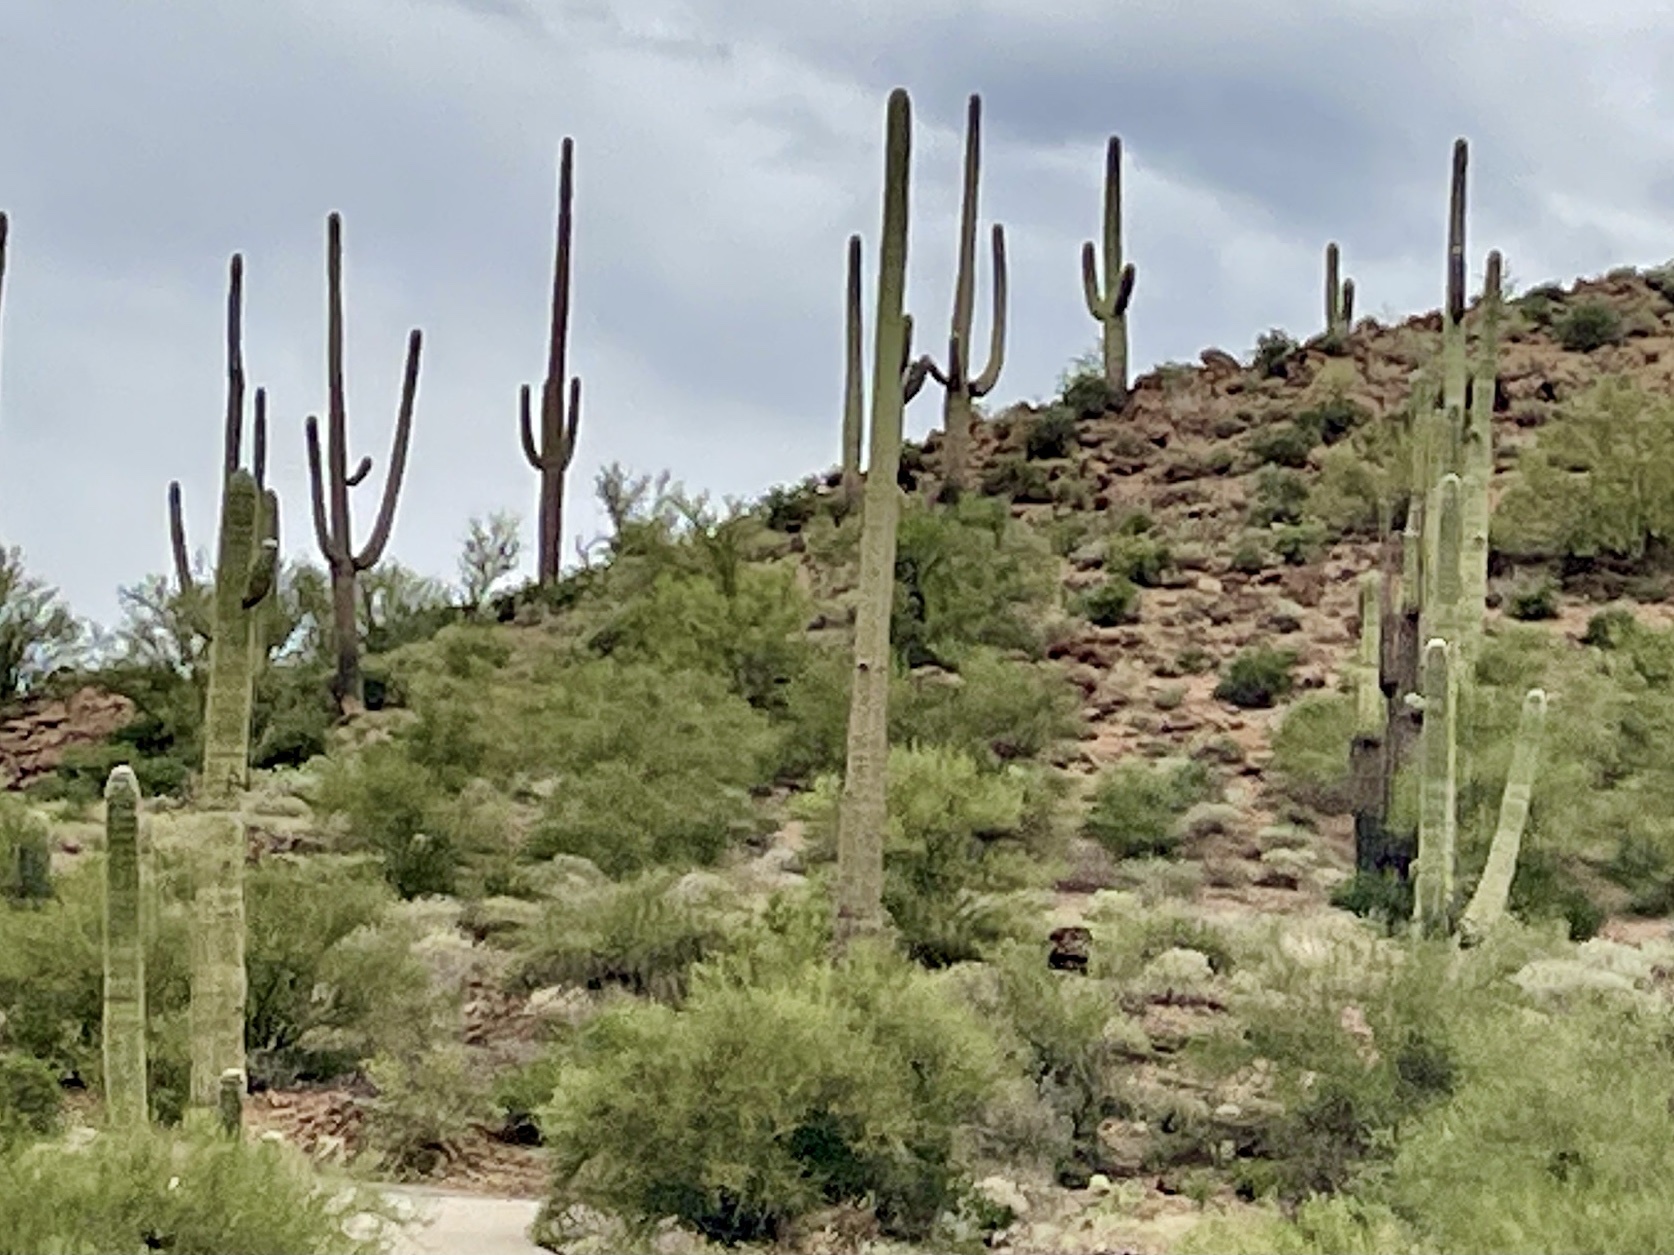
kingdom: Plantae
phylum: Tracheophyta
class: Magnoliopsida
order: Caryophyllales
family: Cactaceae
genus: Carnegiea
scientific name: Carnegiea gigantea
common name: Saguaro
